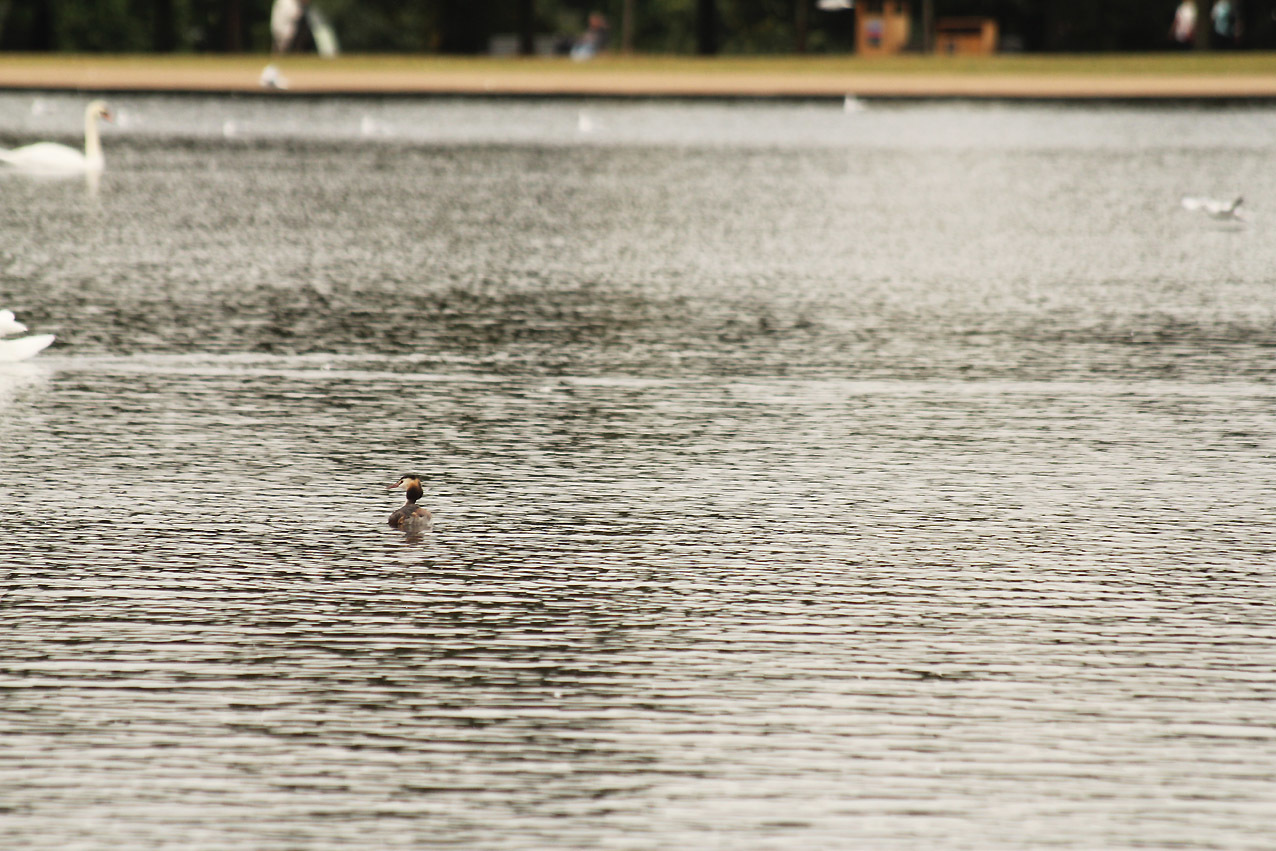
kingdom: Animalia
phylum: Chordata
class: Aves
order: Podicipediformes
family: Podicipedidae
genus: Podiceps
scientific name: Podiceps cristatus
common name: Great crested grebe
